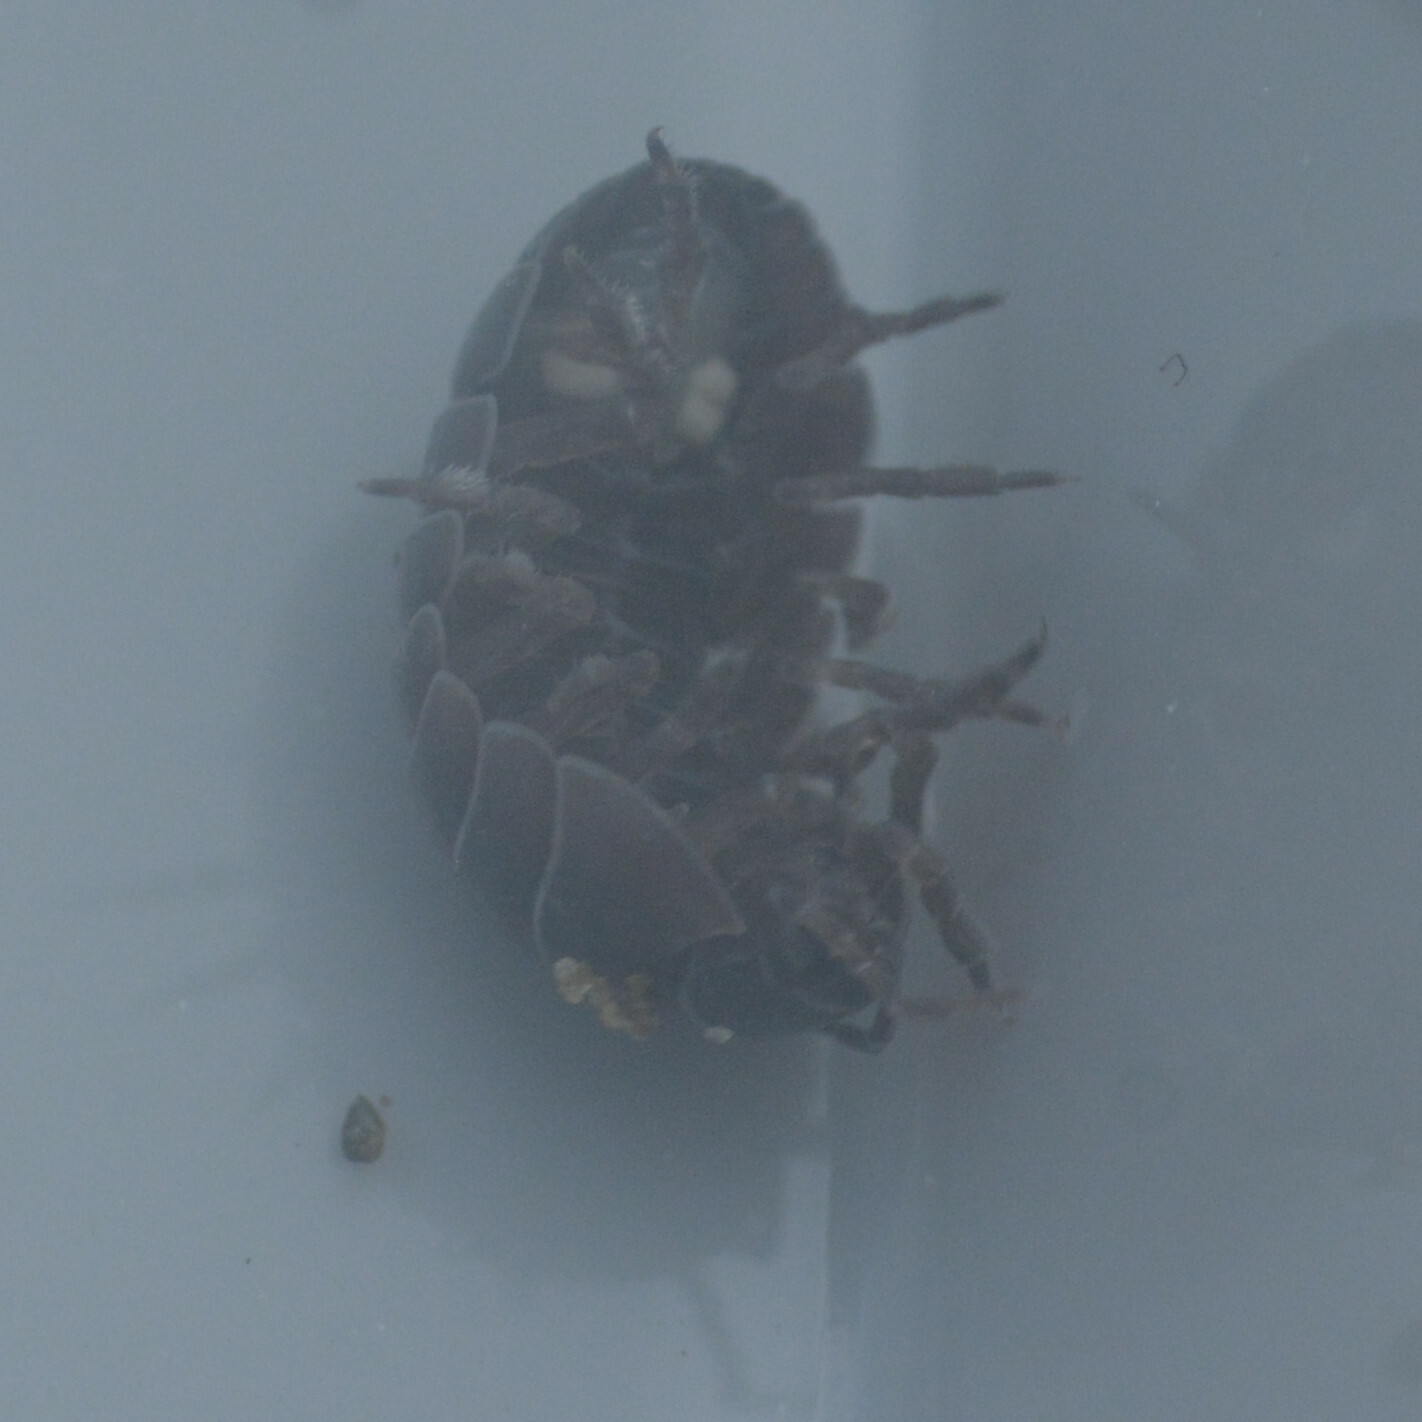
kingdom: Animalia
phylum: Arthropoda
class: Malacostraca
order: Isopoda
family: Armadillidiidae
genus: Armadillidium
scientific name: Armadillidium vulgare
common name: Common pill woodlouse
